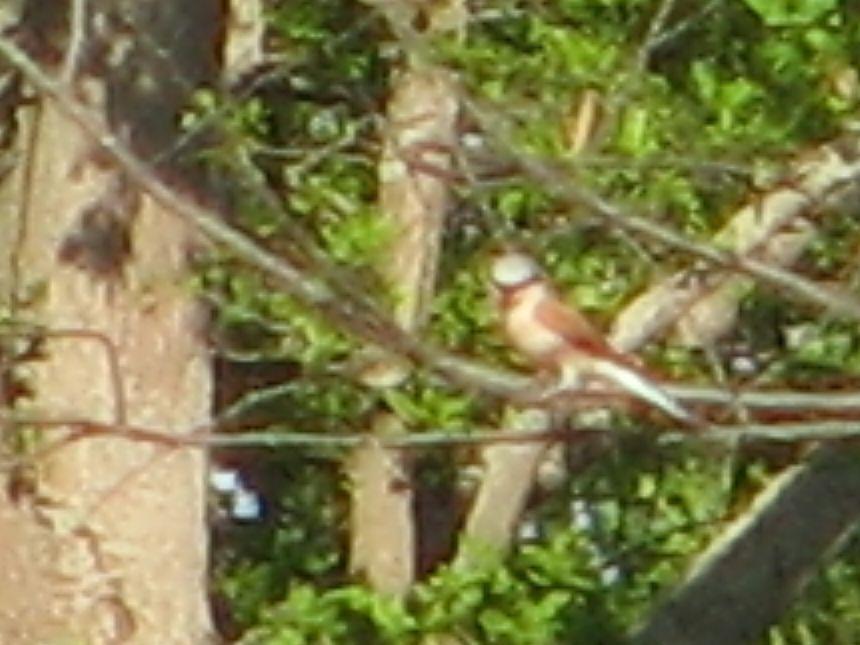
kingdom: Animalia
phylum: Chordata
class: Aves
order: Passeriformes
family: Laniidae
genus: Lanius
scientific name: Lanius collurio
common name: Red-backed shrike
